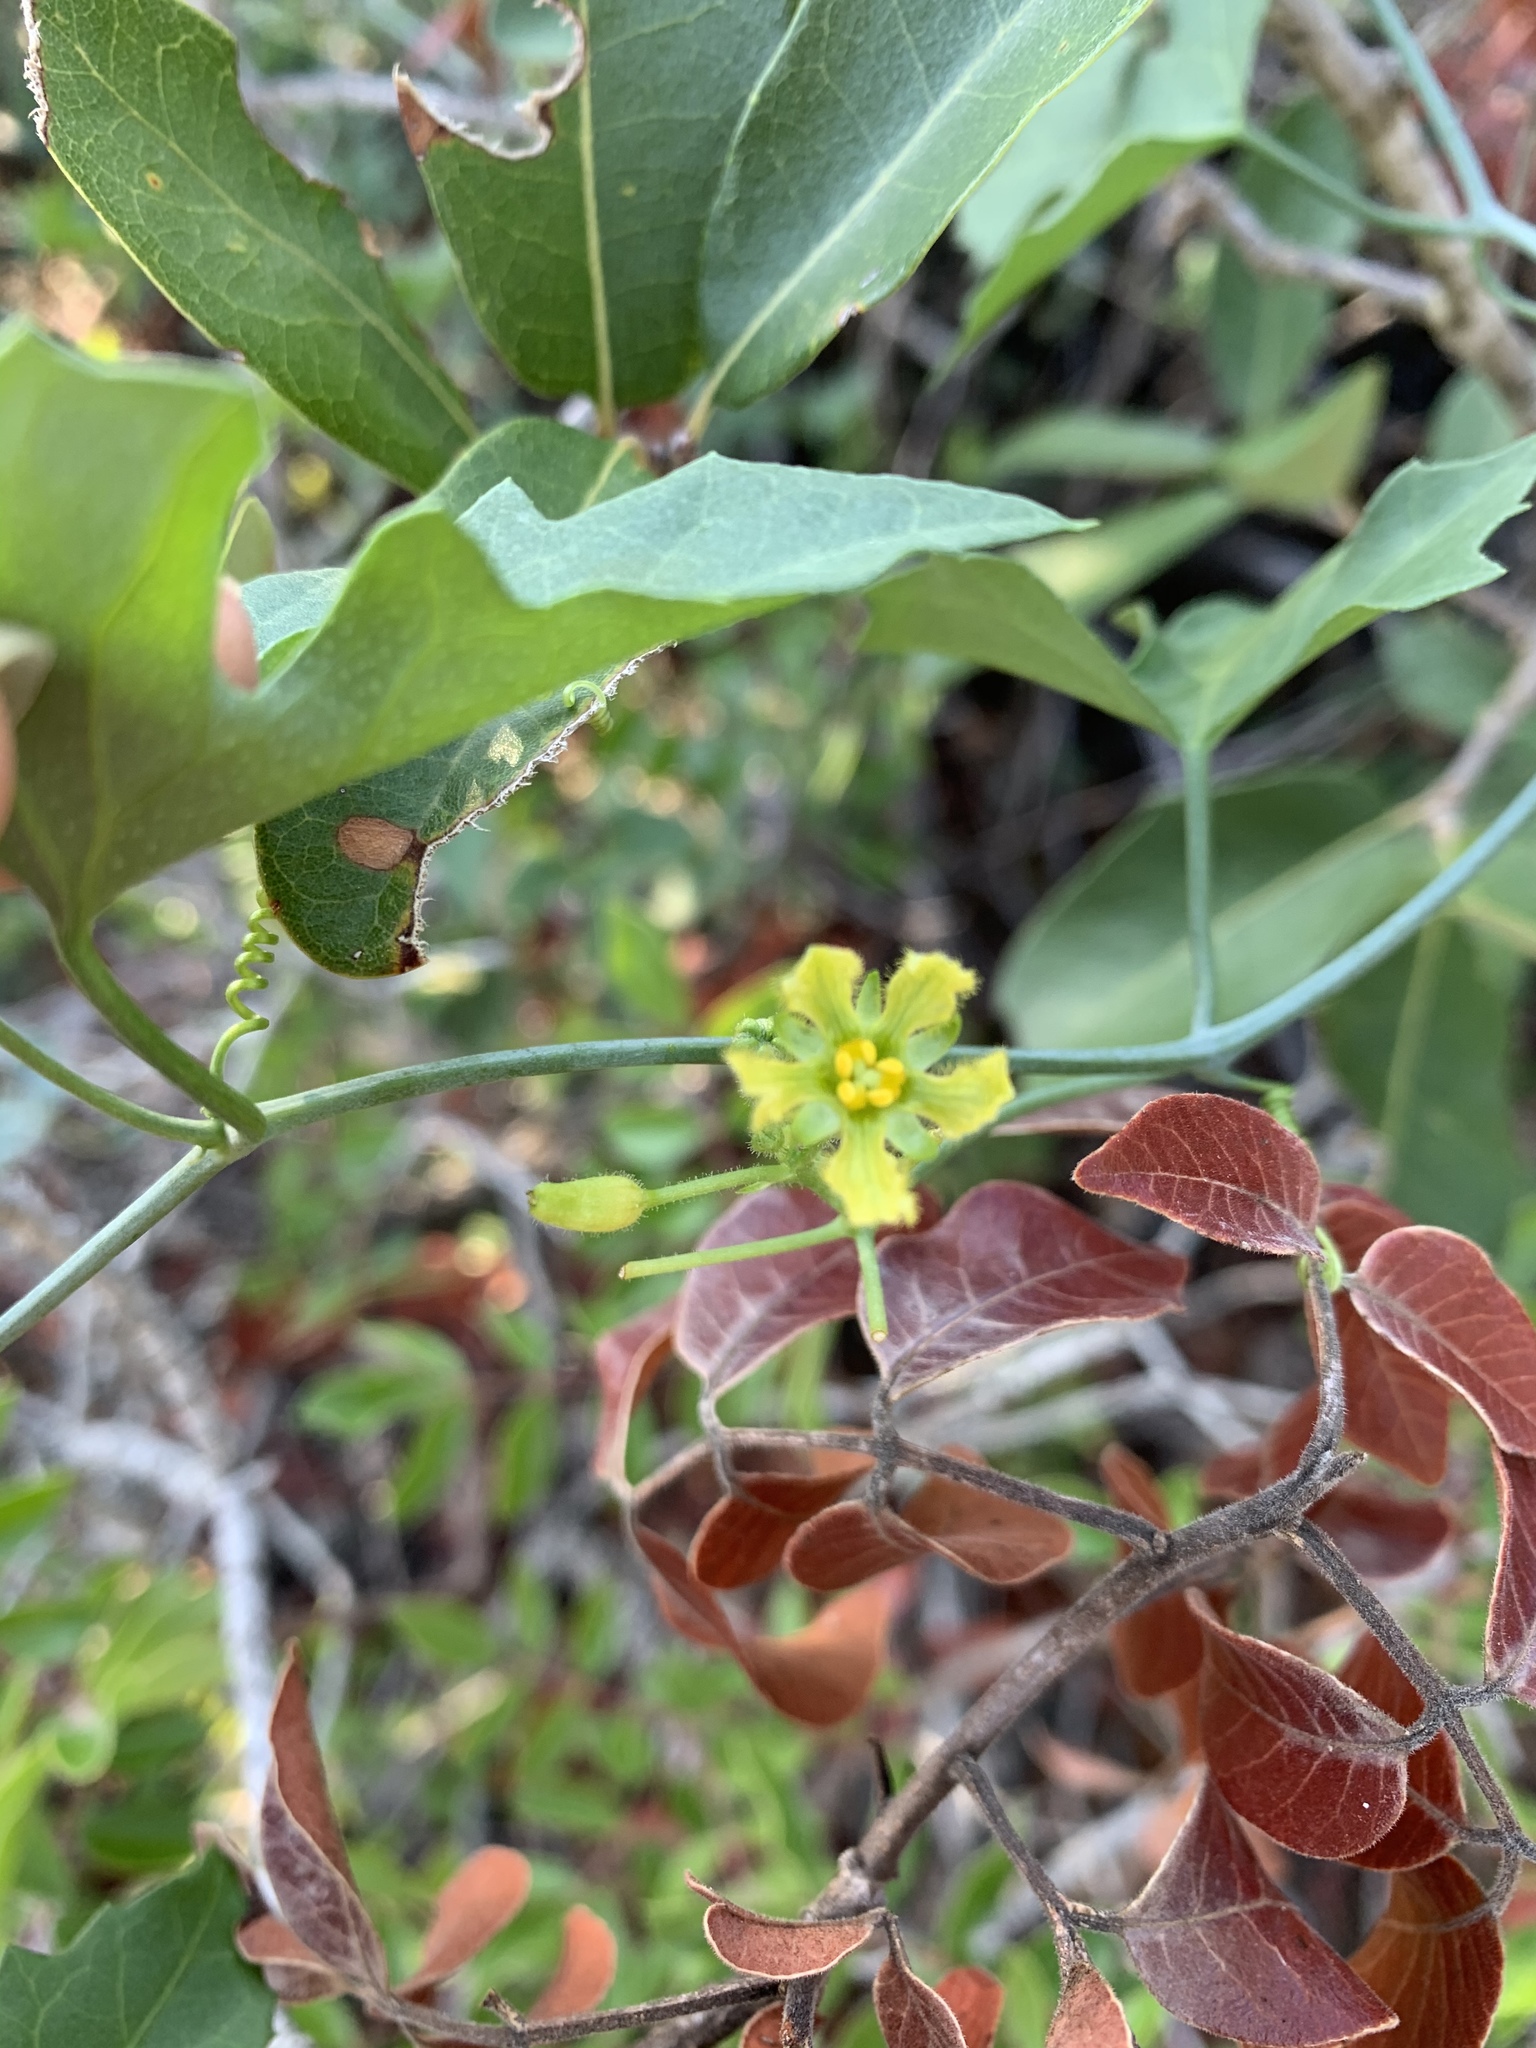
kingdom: Plantae
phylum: Tracheophyta
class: Magnoliopsida
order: Cucurbitales
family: Cucurbitaceae
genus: Ibervillea
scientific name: Ibervillea lindheimeri
